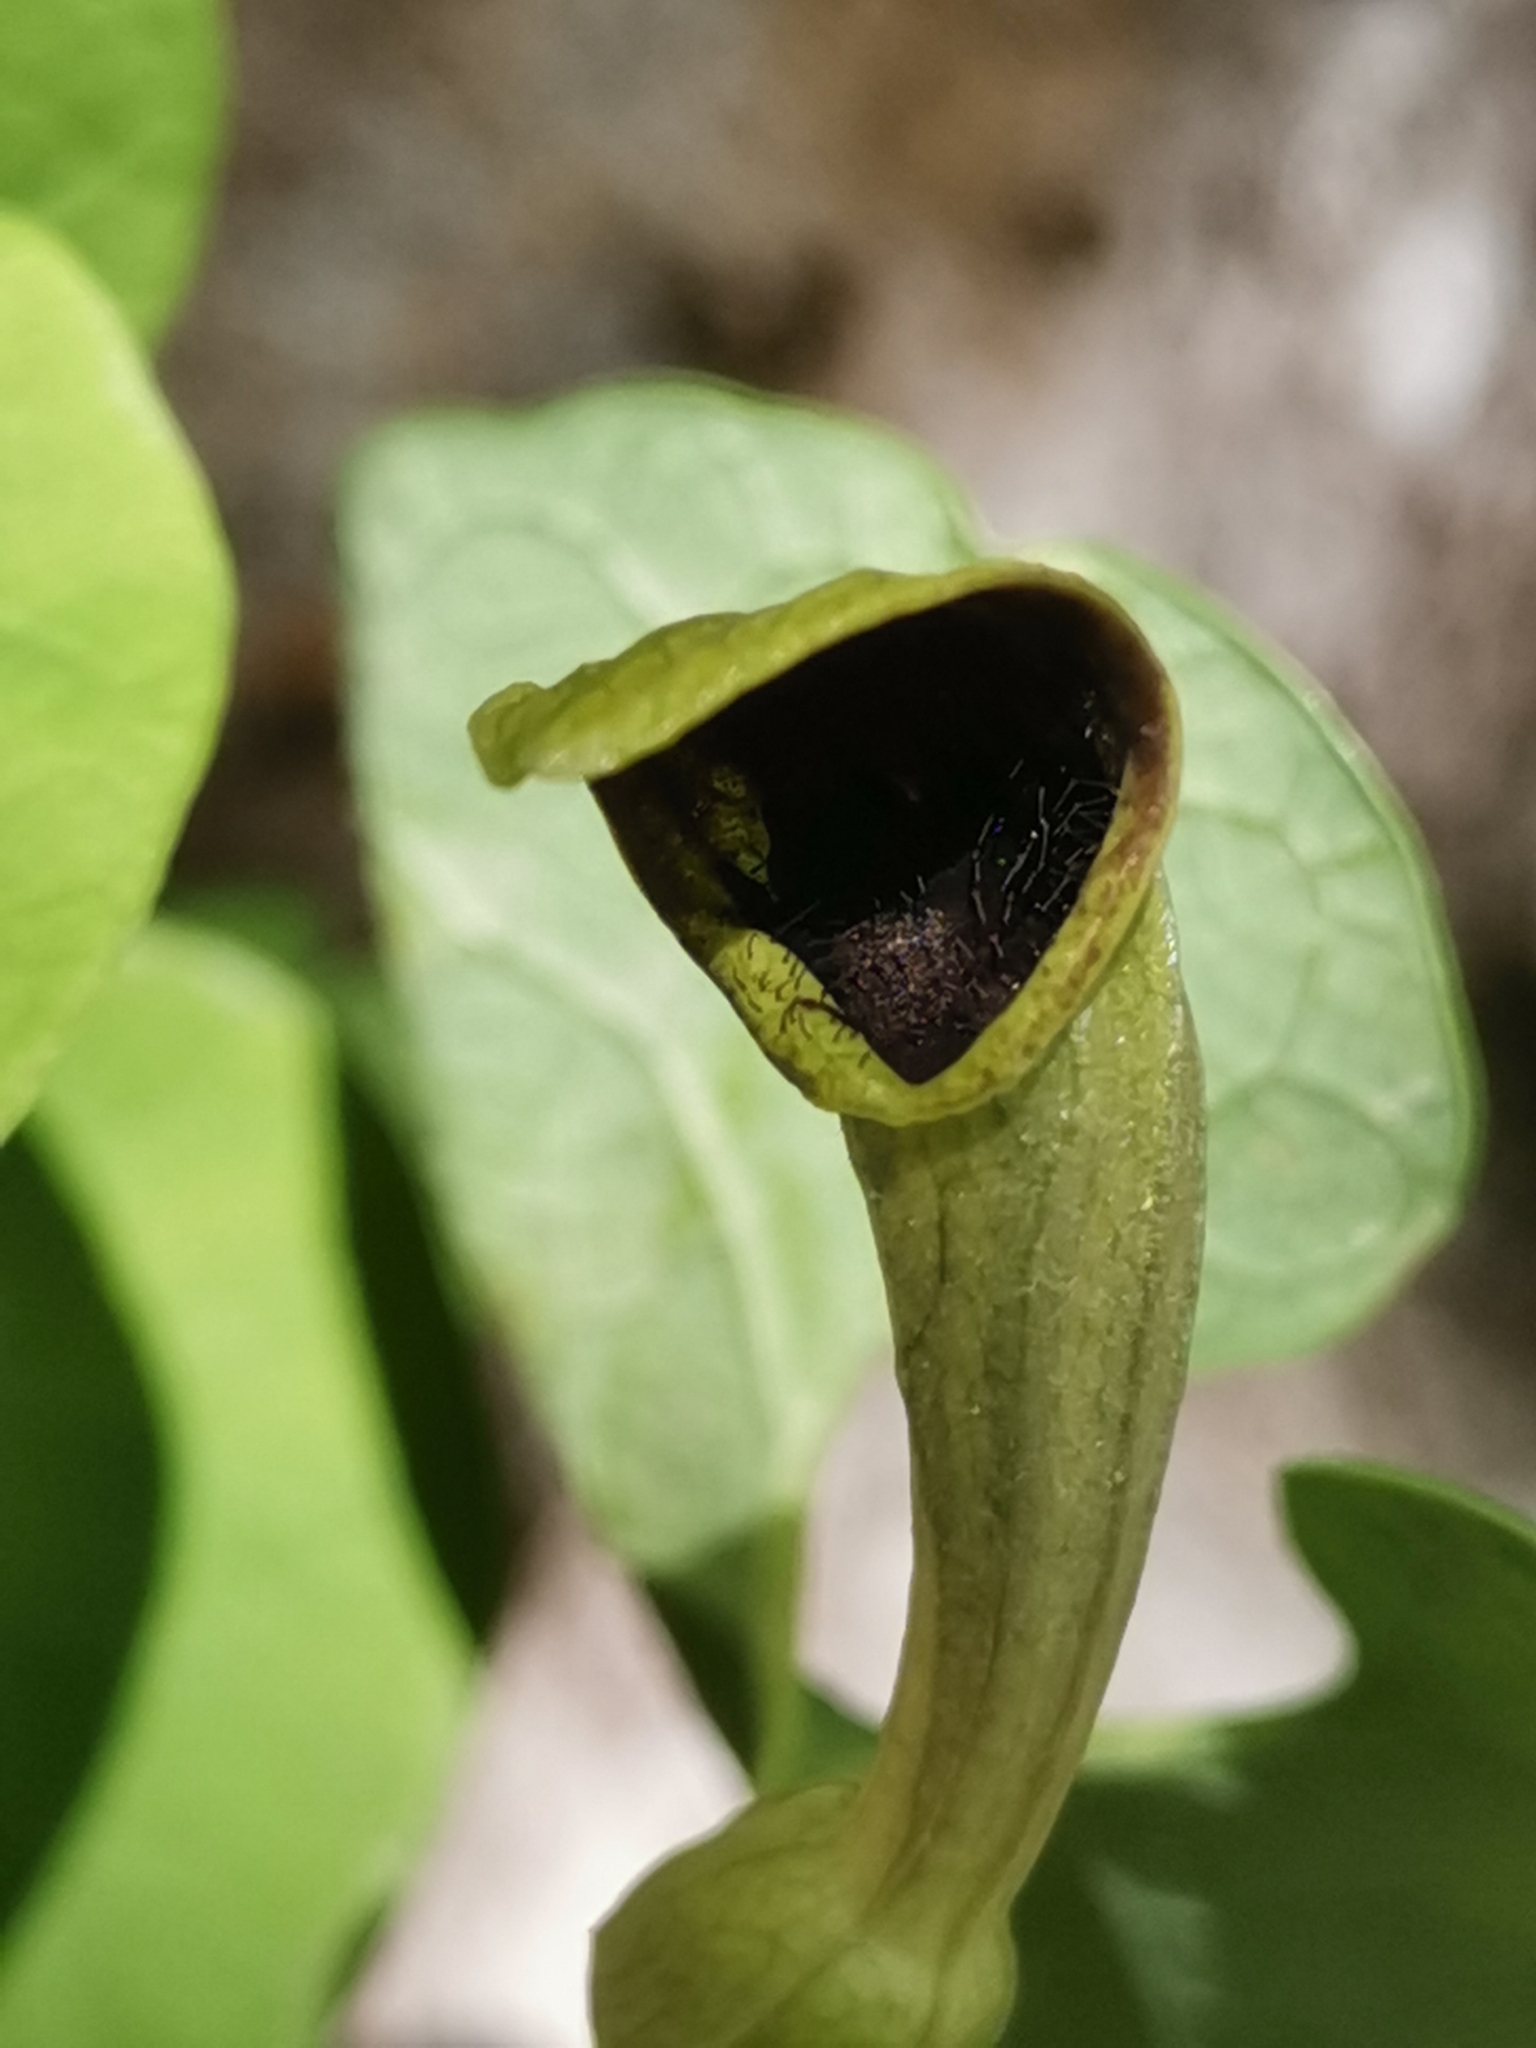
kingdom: Plantae
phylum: Tracheophyta
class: Magnoliopsida
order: Piperales
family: Aristolochiaceae
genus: Aristolochia
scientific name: Aristolochia pallida
